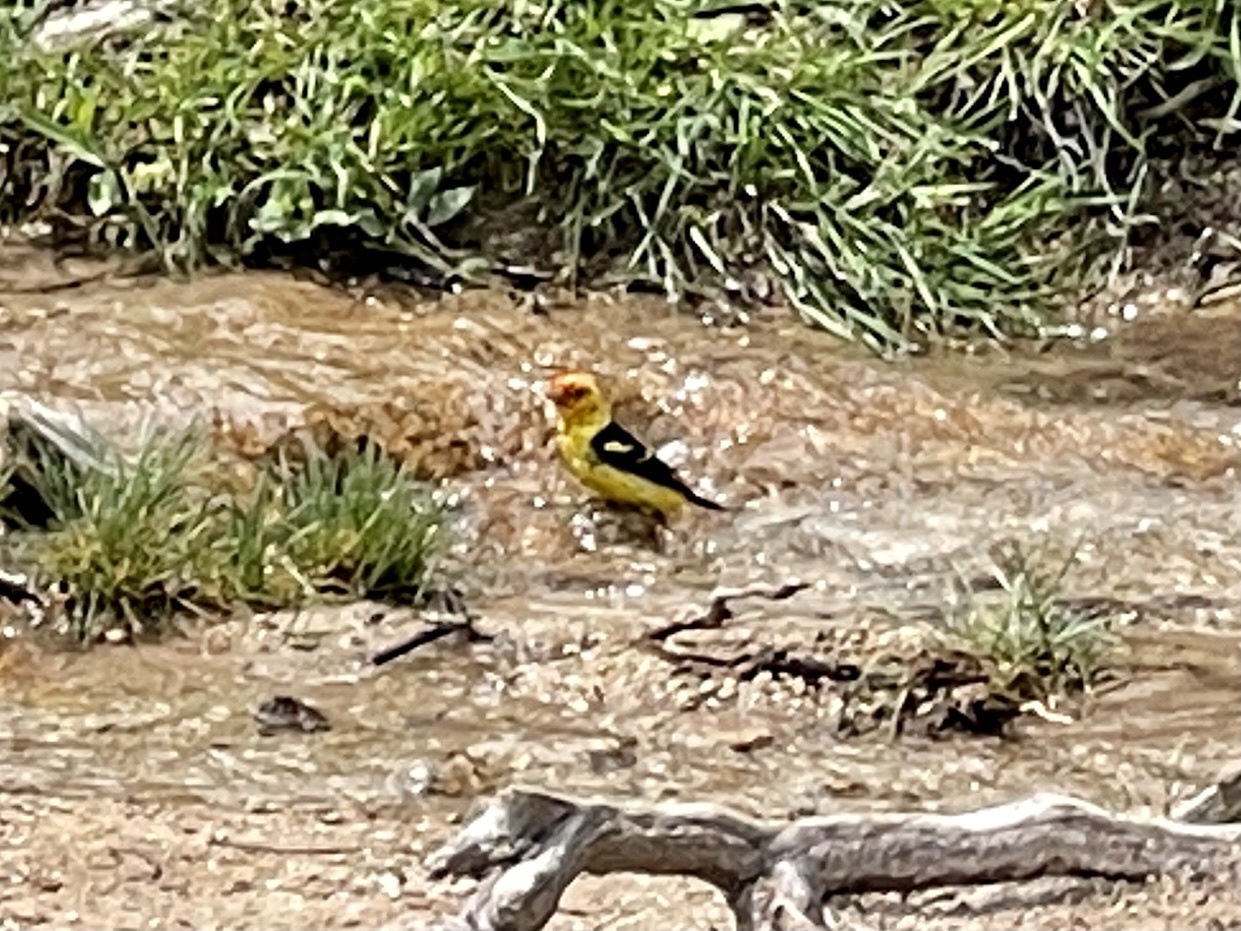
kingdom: Animalia
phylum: Chordata
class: Aves
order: Passeriformes
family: Cardinalidae
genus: Piranga
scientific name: Piranga ludoviciana
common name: Western tanager
